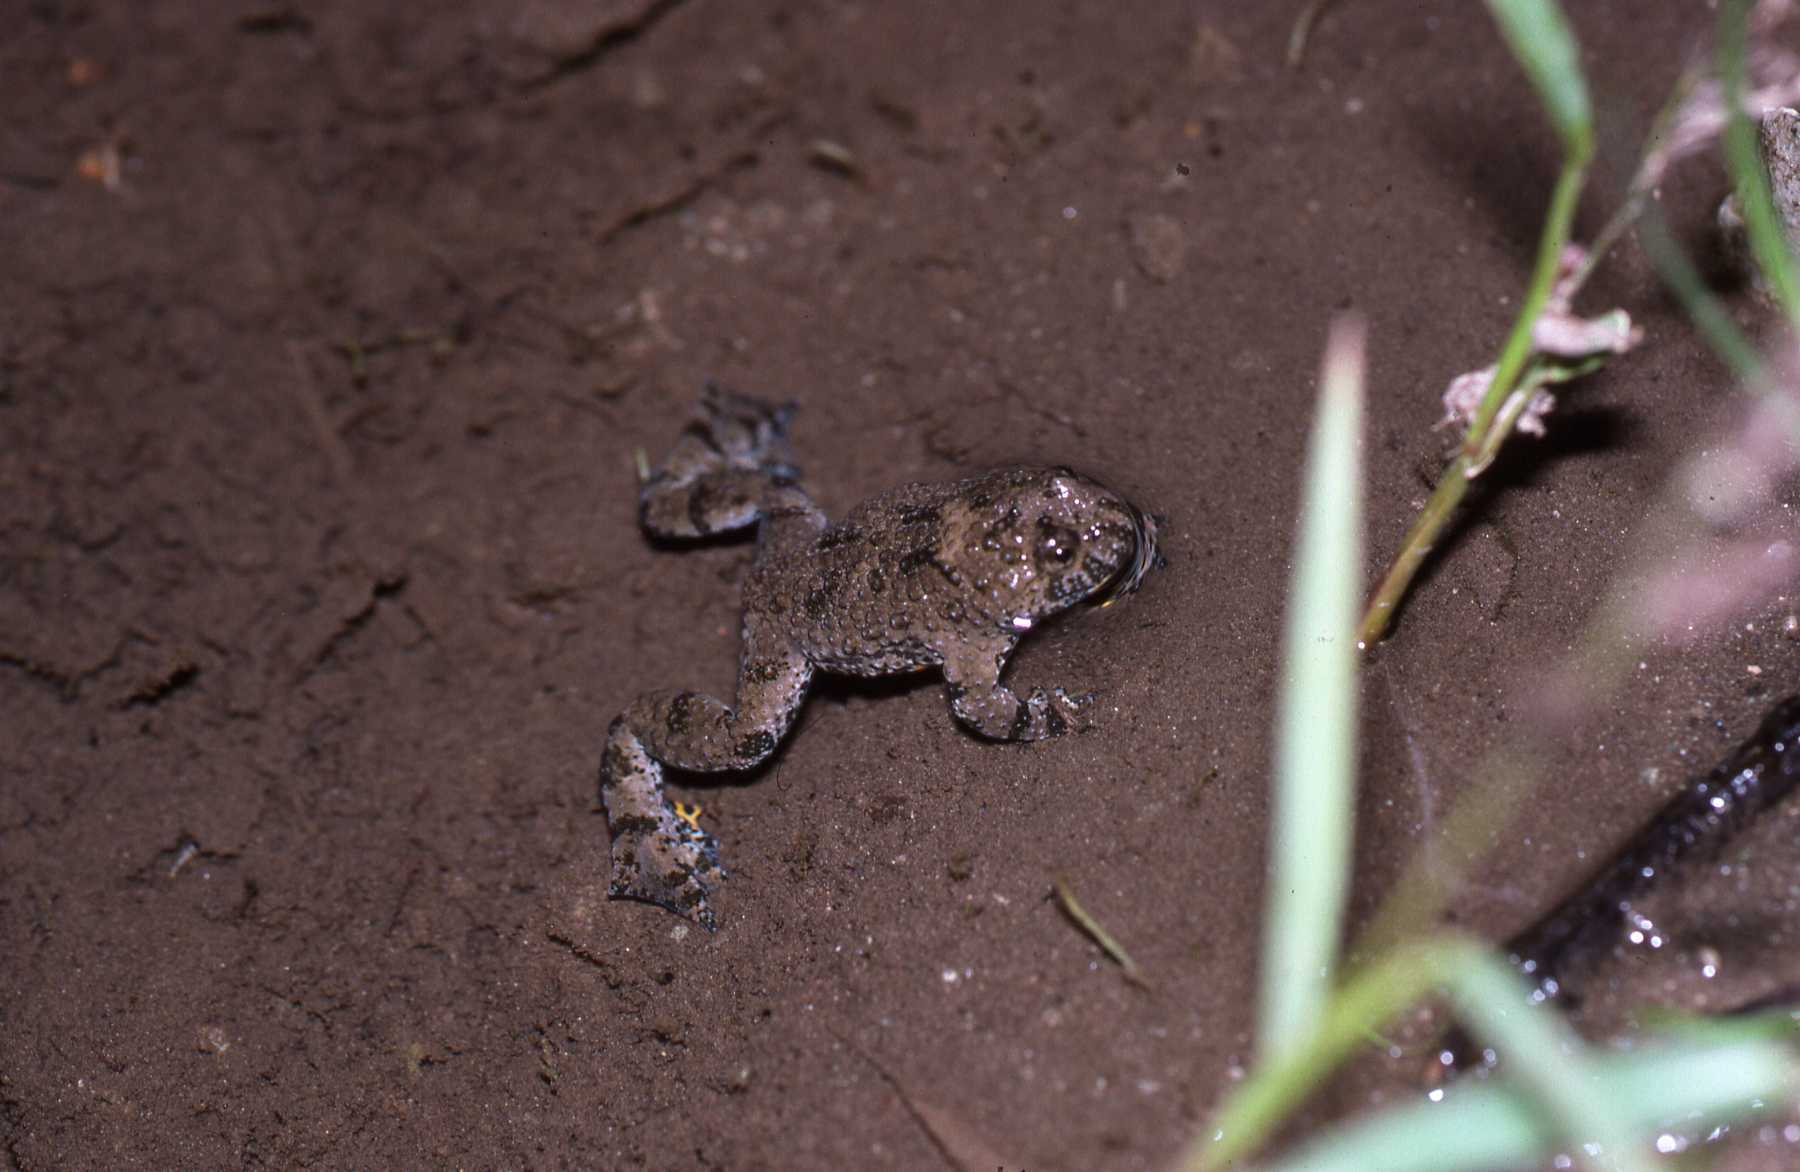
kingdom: Animalia
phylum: Chordata
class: Amphibia
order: Anura
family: Bombinatoridae
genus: Bombina
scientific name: Bombina variegata
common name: Yellow-bellied toad
